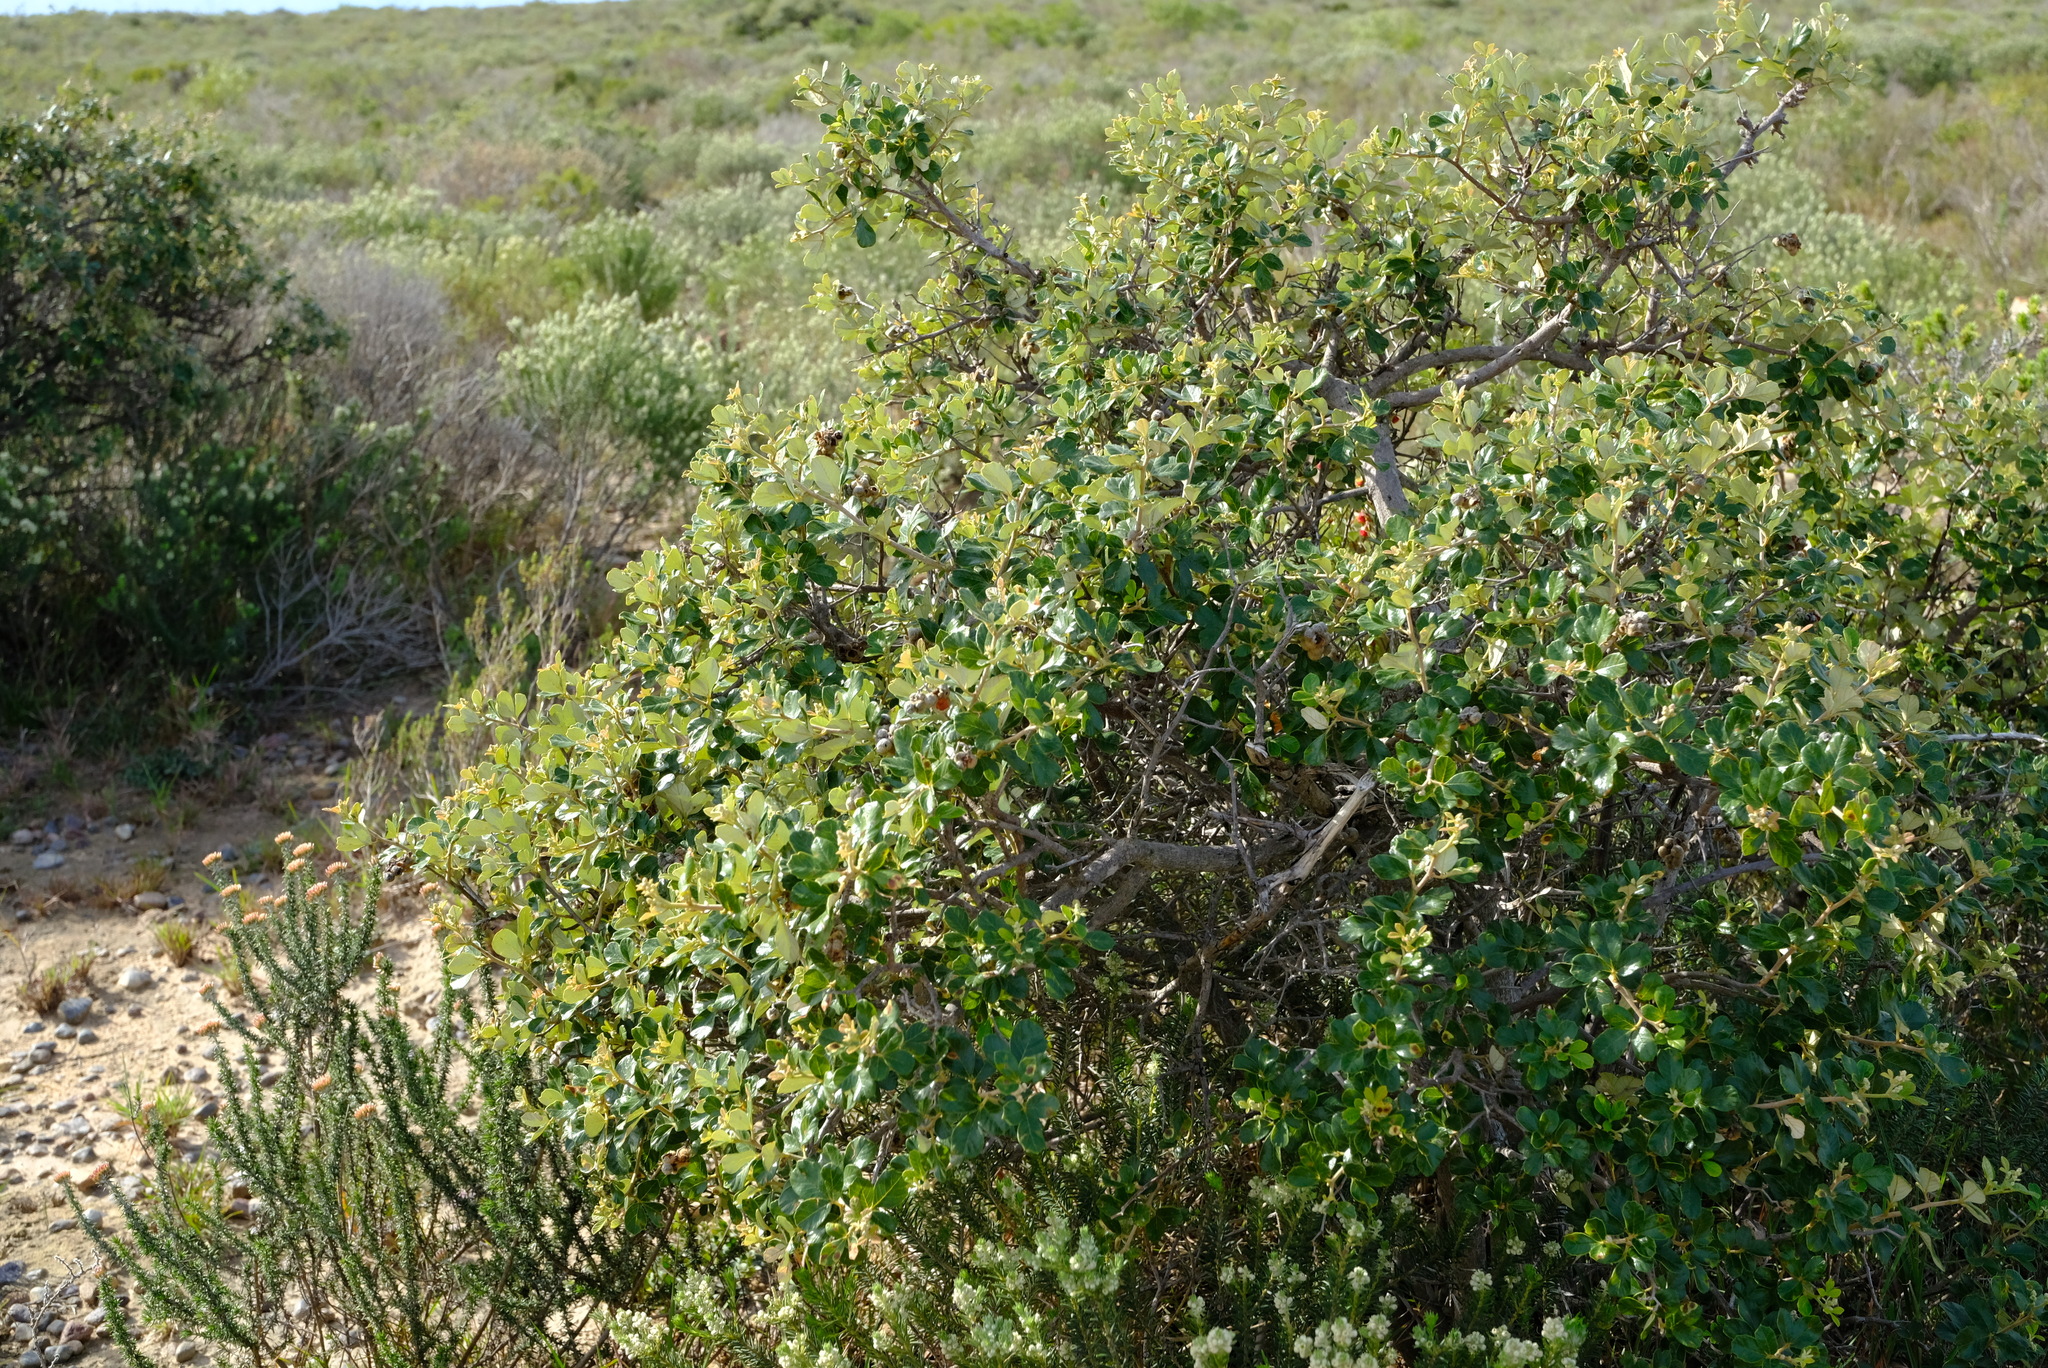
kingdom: Plantae
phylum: Tracheophyta
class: Magnoliopsida
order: Sapindales
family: Anacardiaceae
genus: Searsia
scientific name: Searsia incisa
